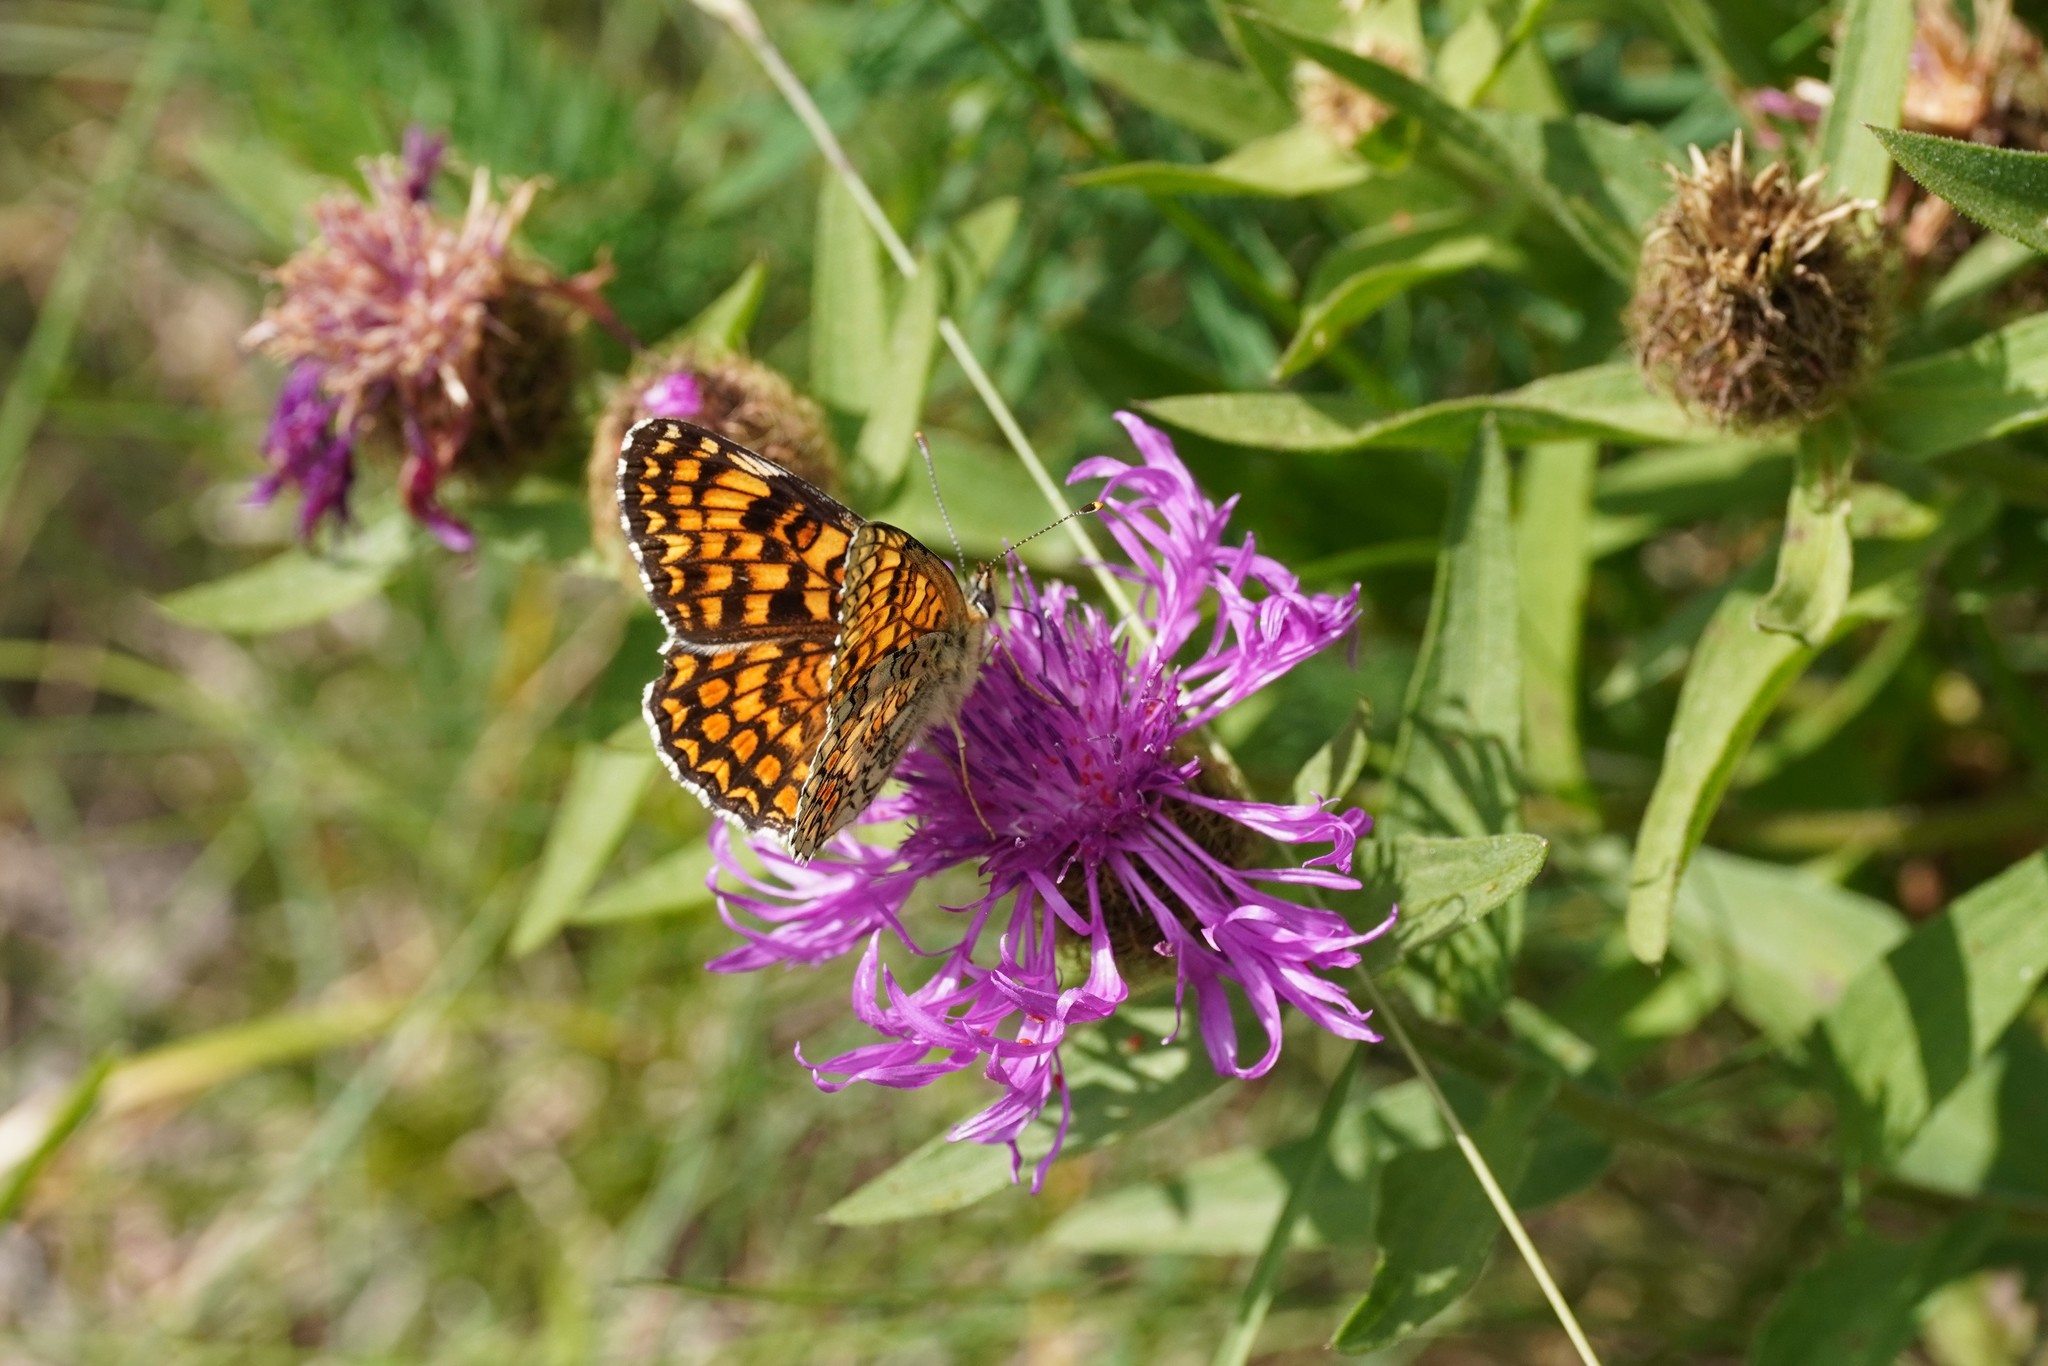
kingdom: Animalia
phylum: Arthropoda
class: Insecta
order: Lepidoptera
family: Nymphalidae
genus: Melitaea
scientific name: Melitaea phoebe
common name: Knapweed fritillary
